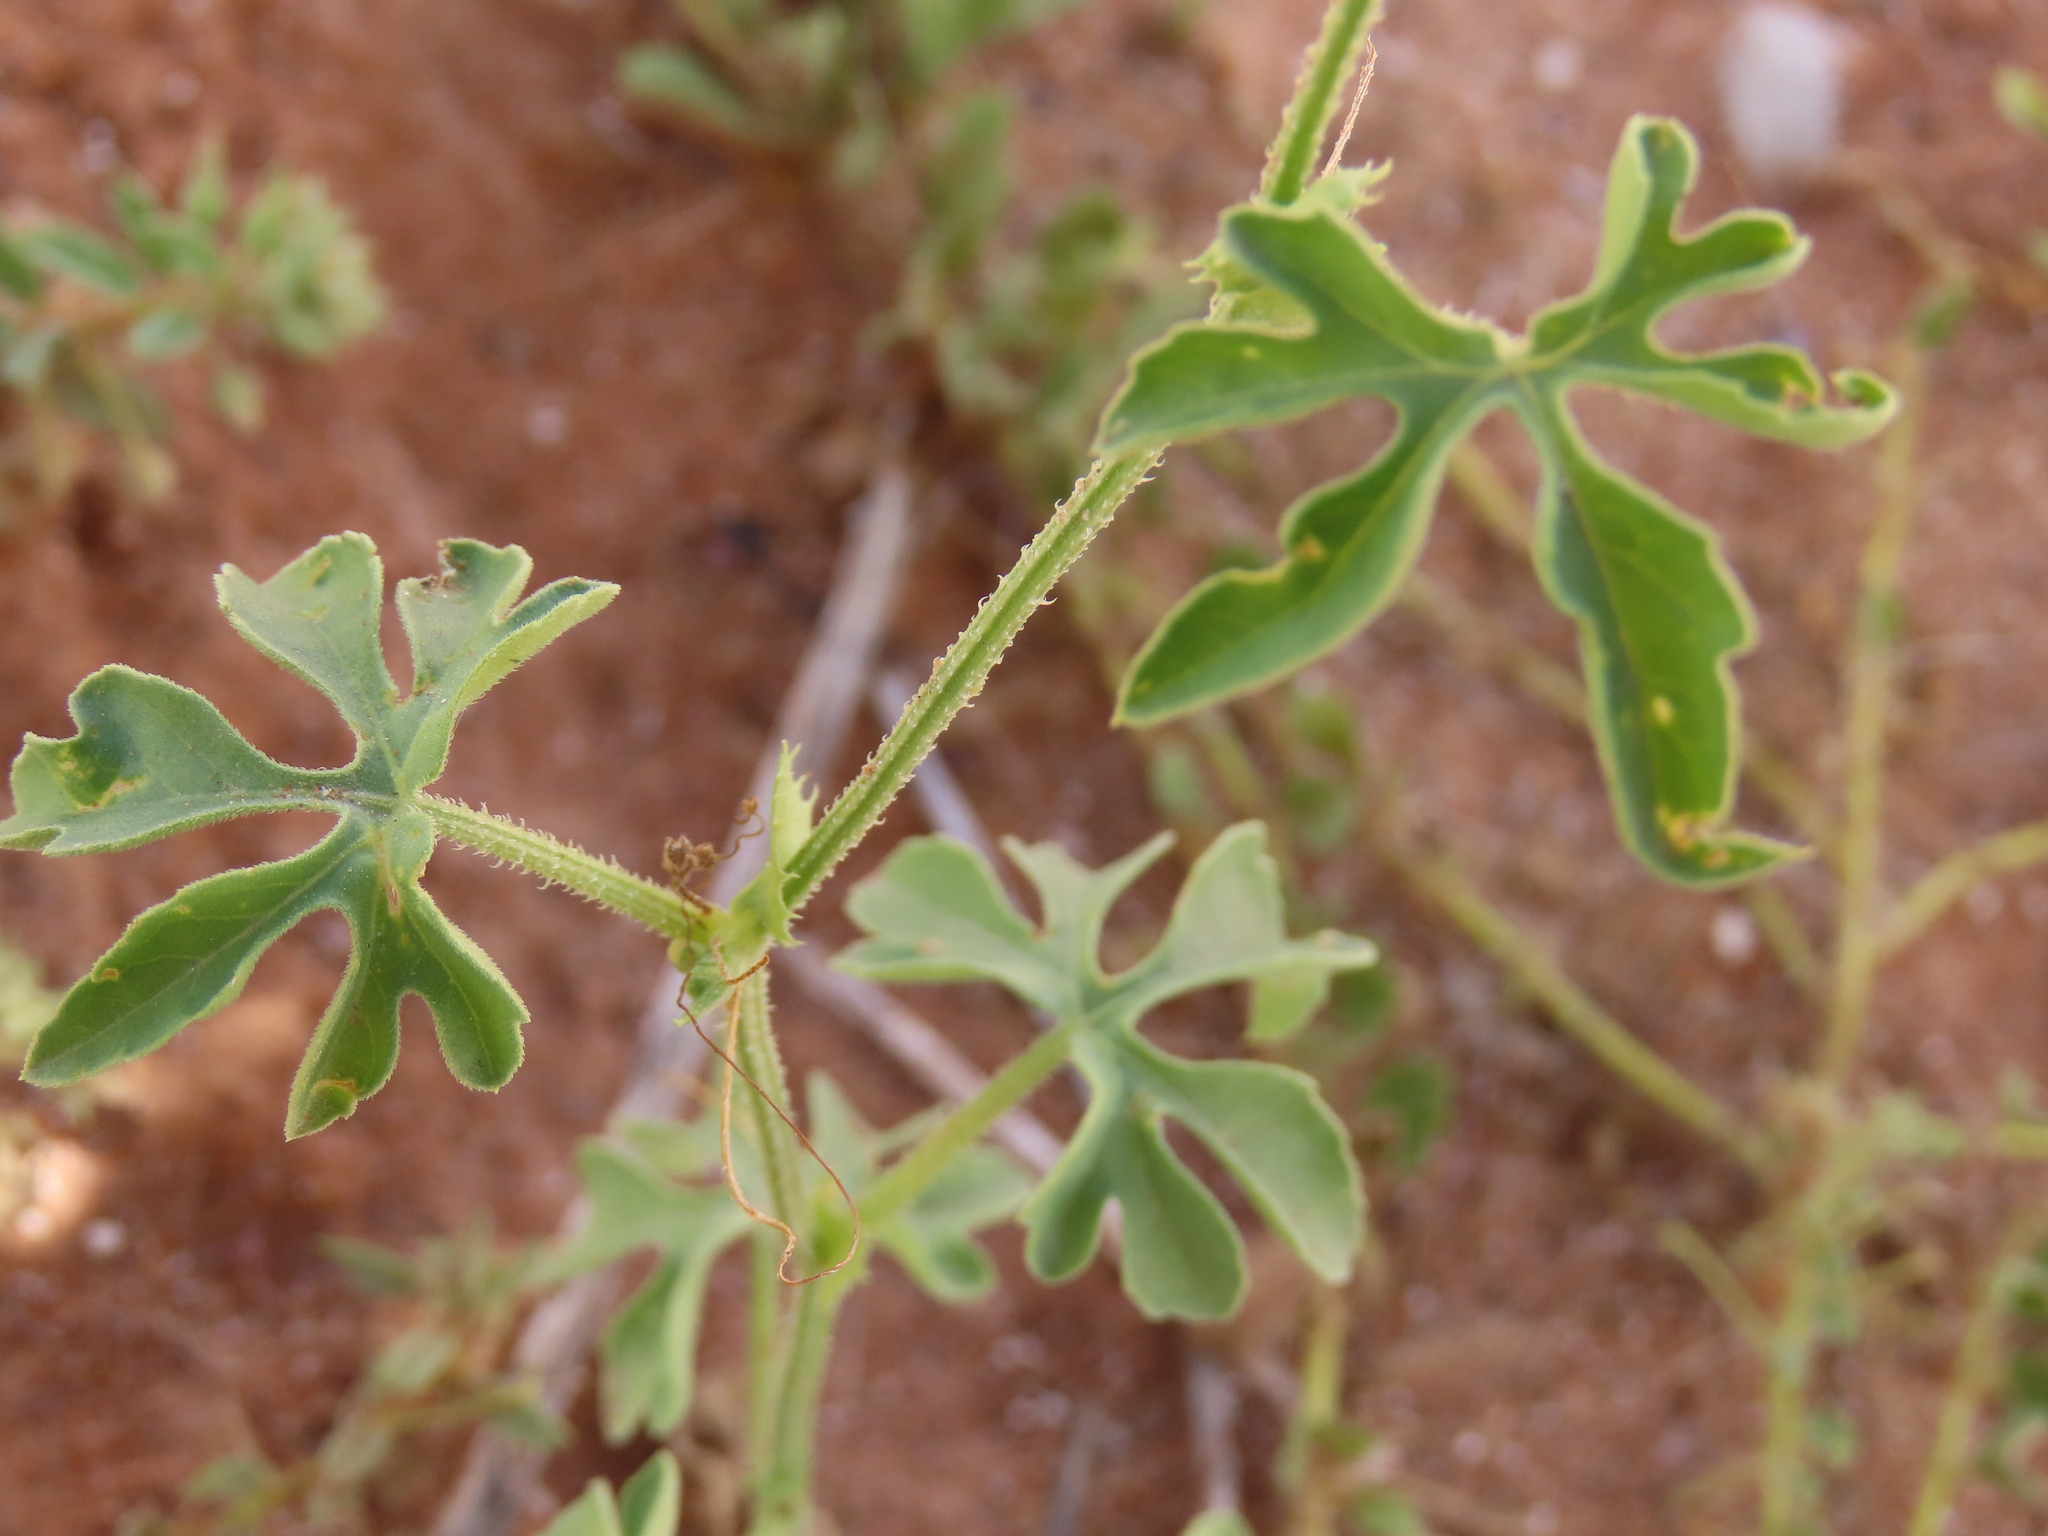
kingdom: Plantae
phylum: Tracheophyta
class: Magnoliopsida
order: Cucurbitales
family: Cucurbitaceae
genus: Dactyliandra
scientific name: Dactyliandra welwitschii
